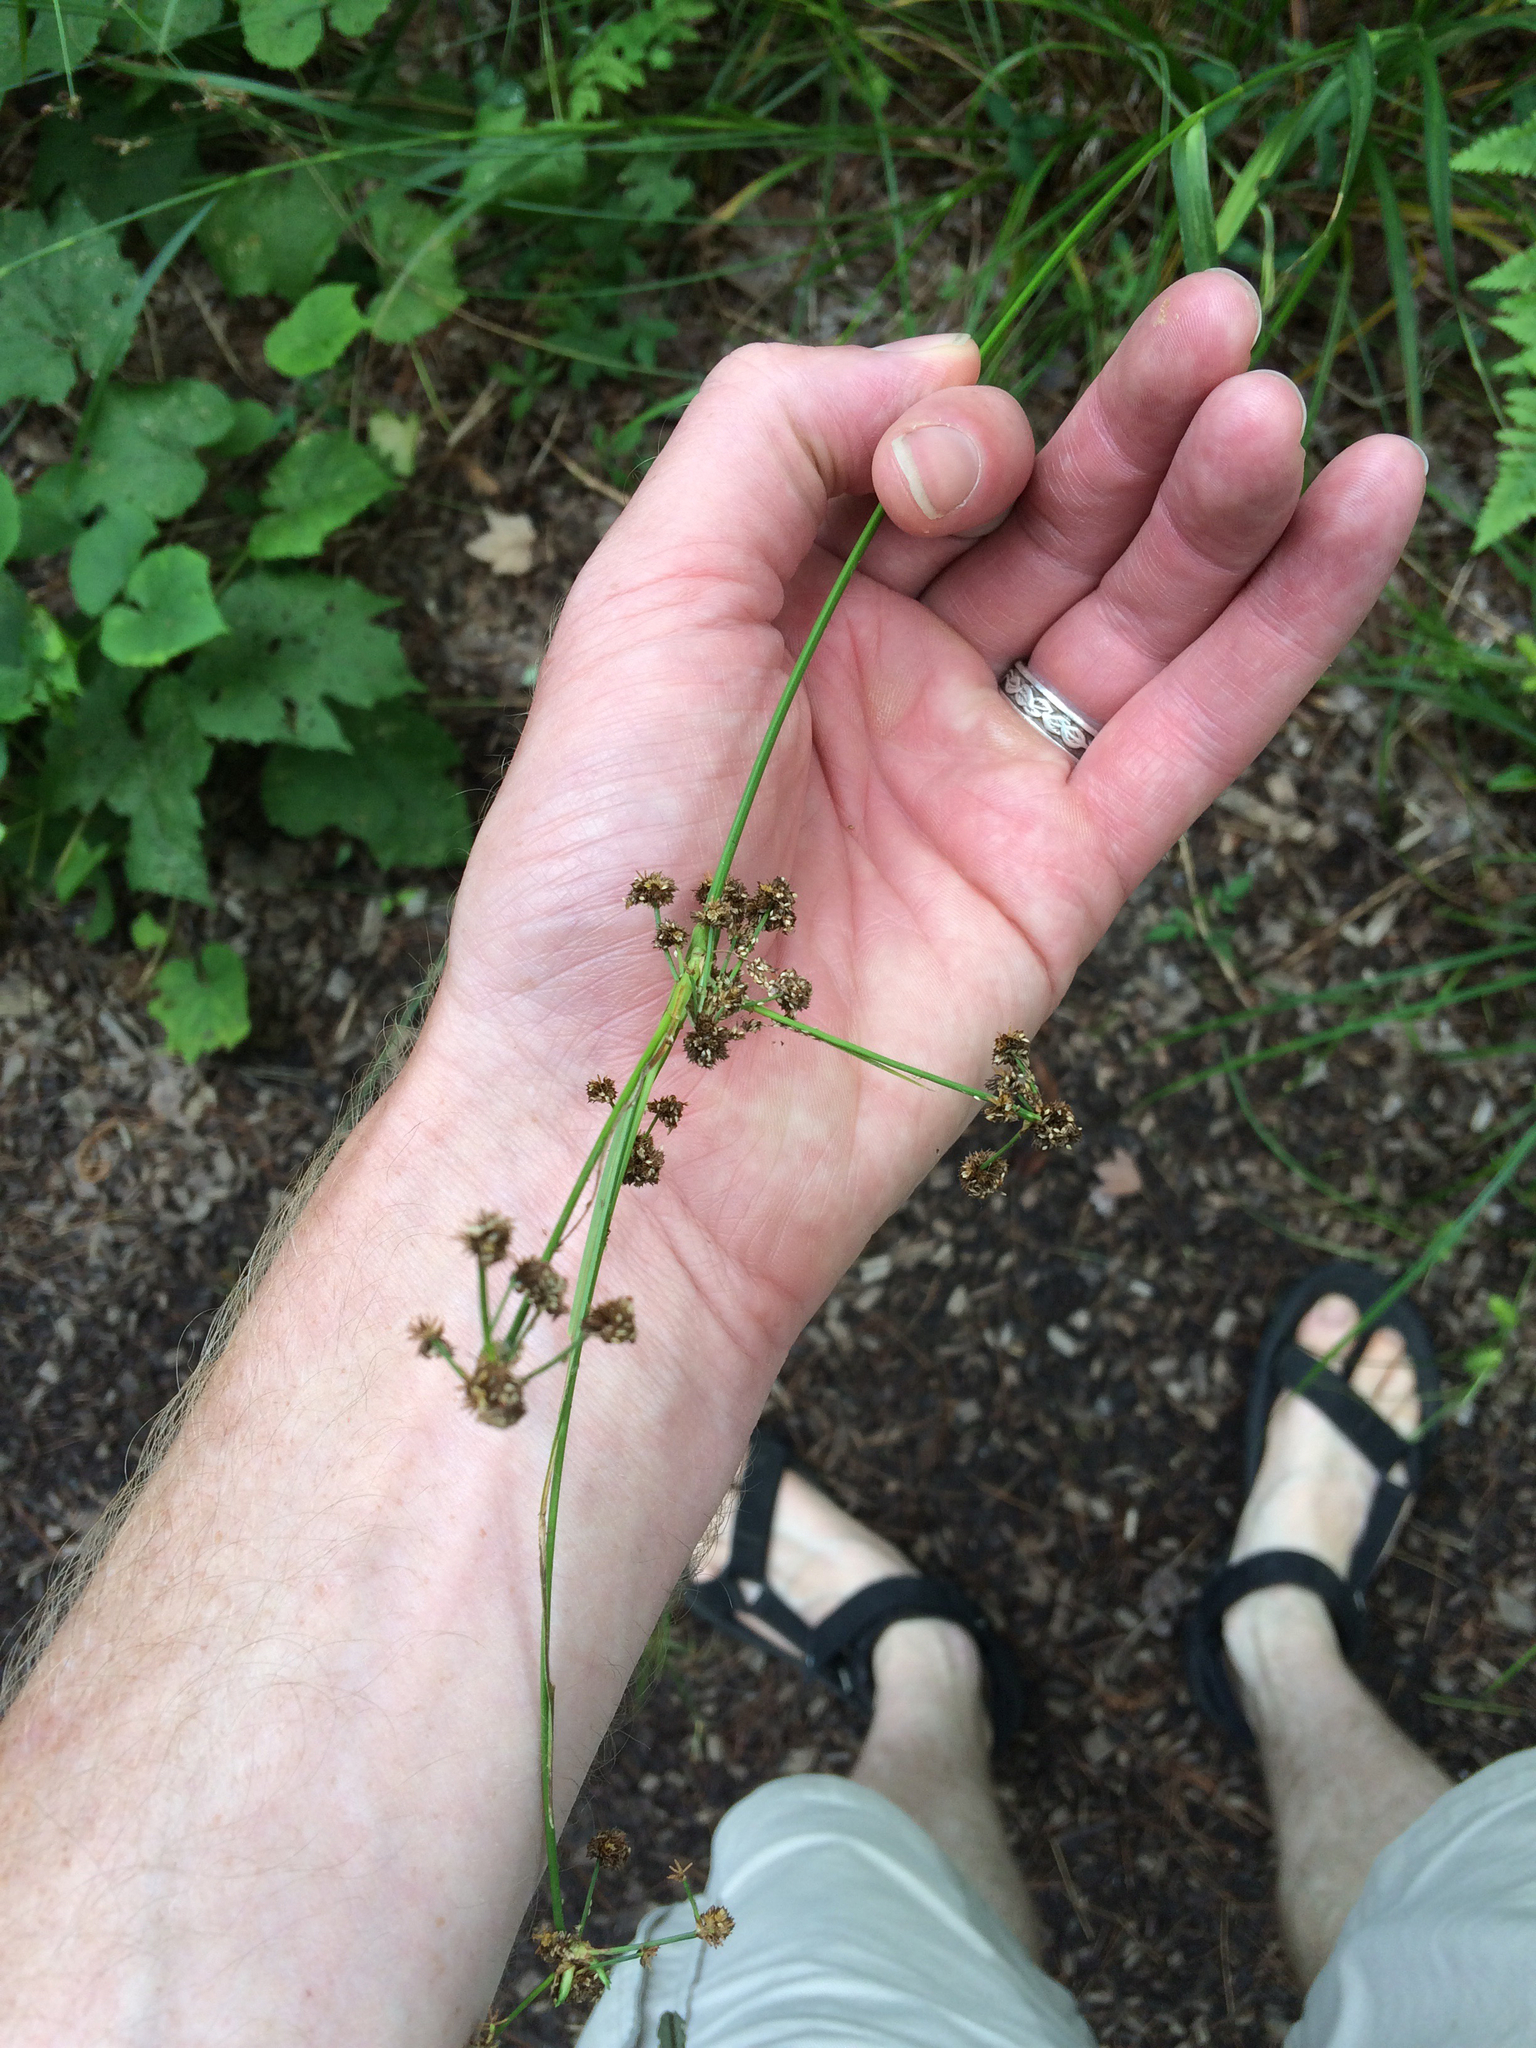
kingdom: Plantae
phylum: Tracheophyta
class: Liliopsida
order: Poales
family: Cyperaceae
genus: Scirpus
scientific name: Scirpus atrovirens
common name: Black bulrush
